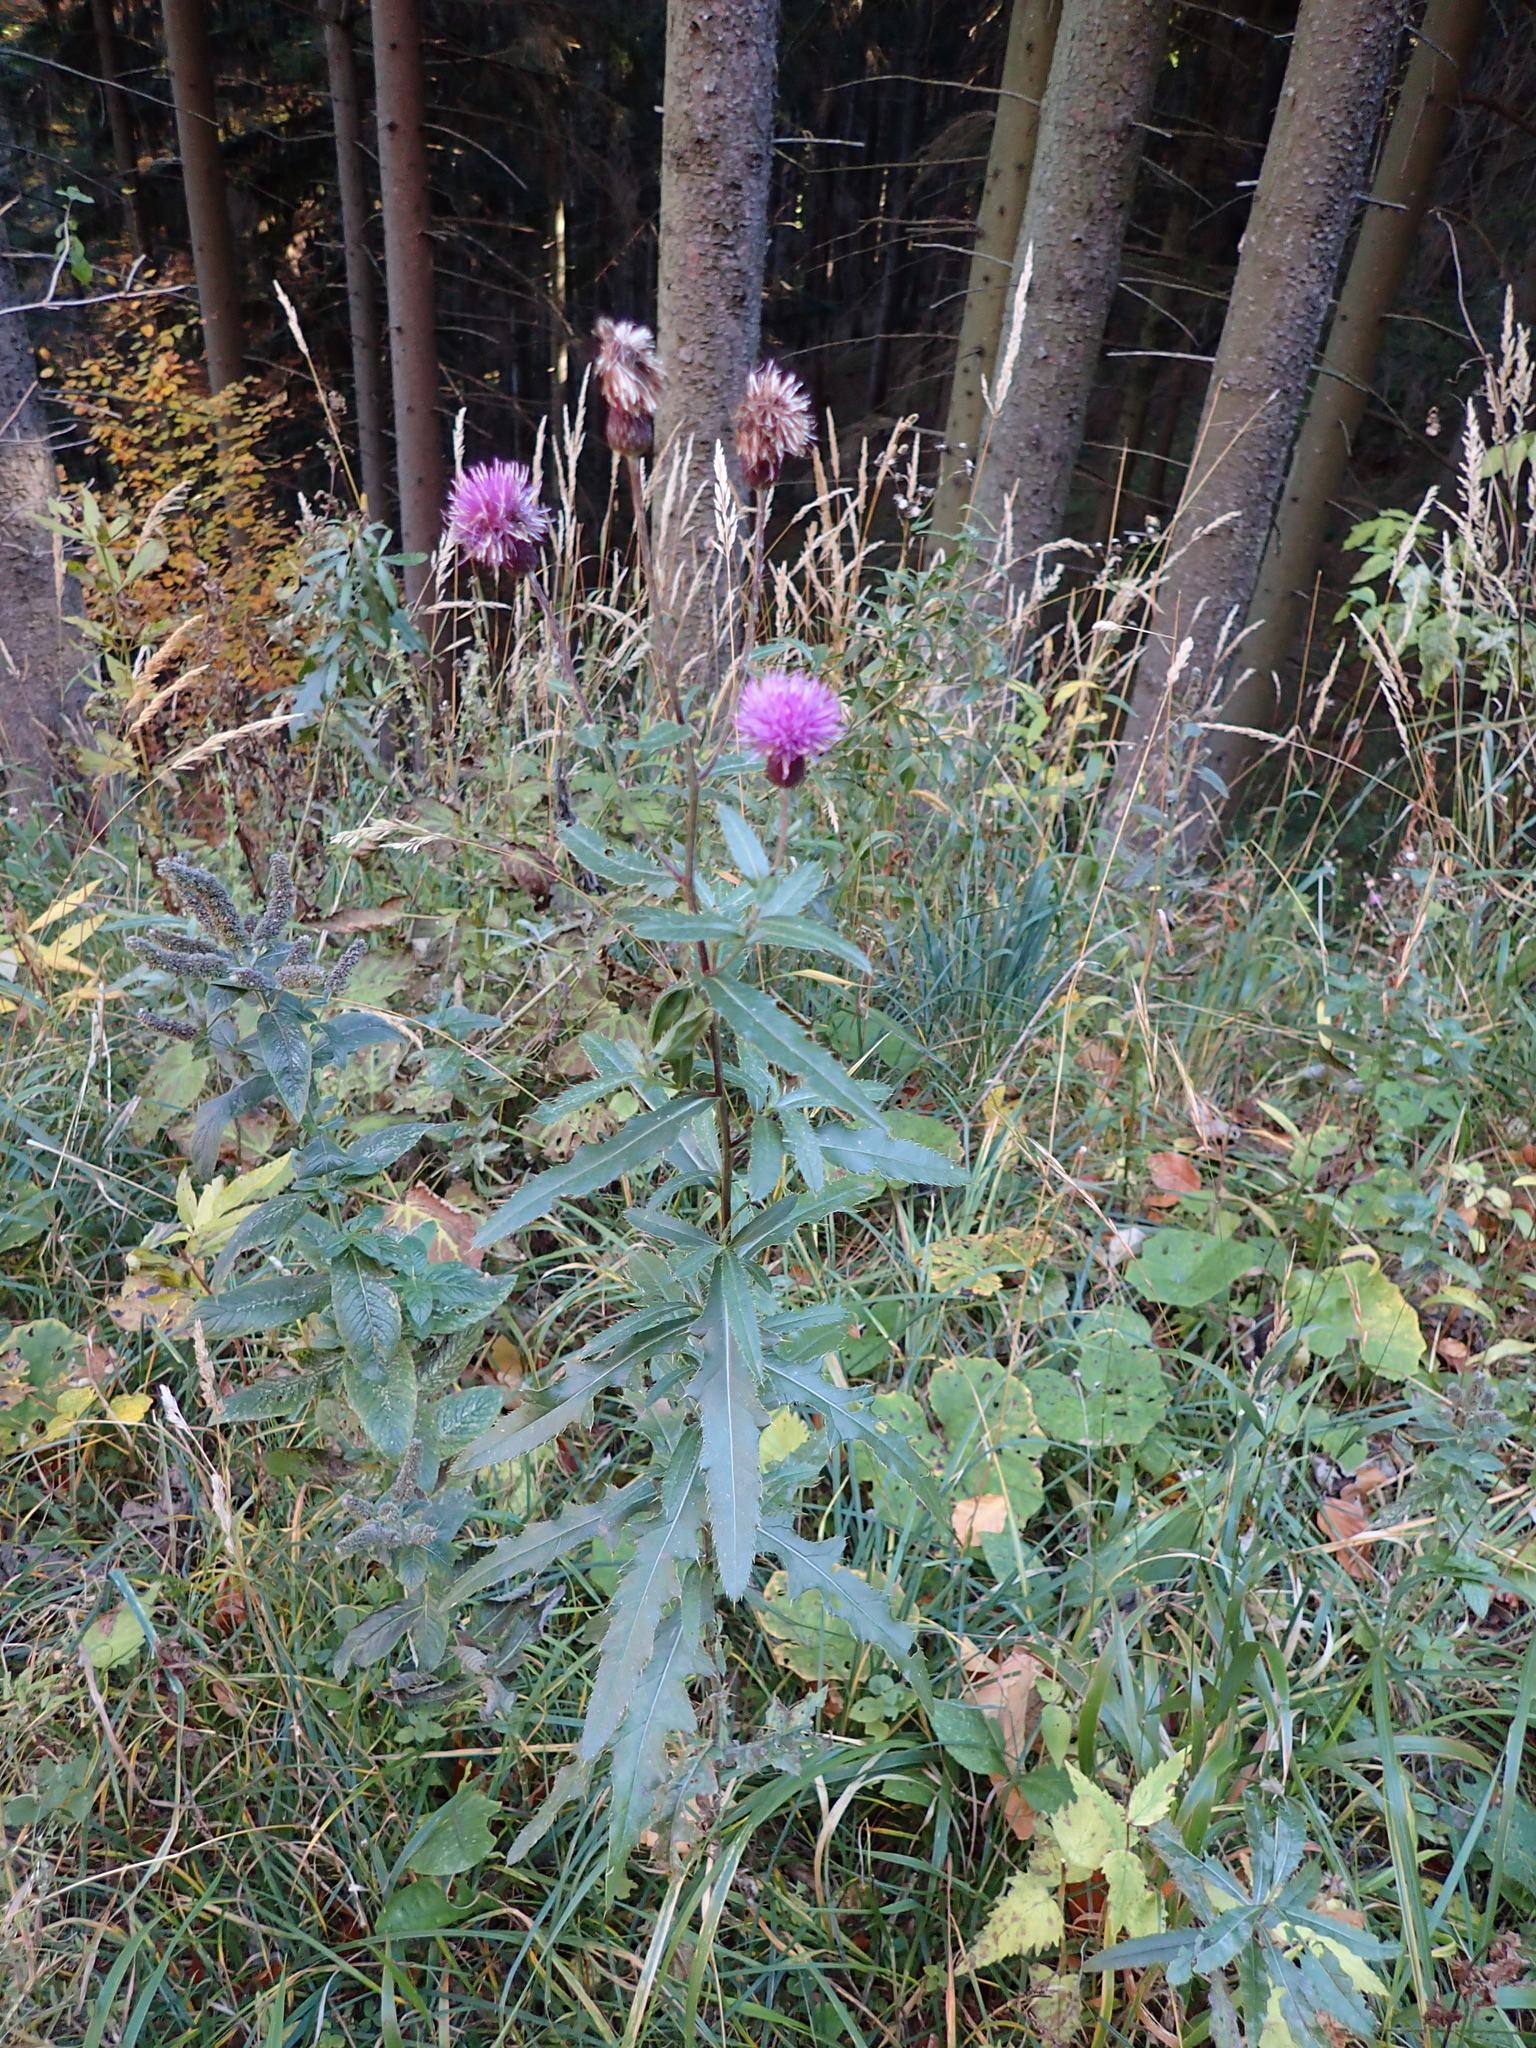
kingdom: Plantae
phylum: Tracheophyta
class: Magnoliopsida
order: Asterales
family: Asteraceae
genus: Cirsium
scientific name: Cirsium arvense
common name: Creeping thistle
